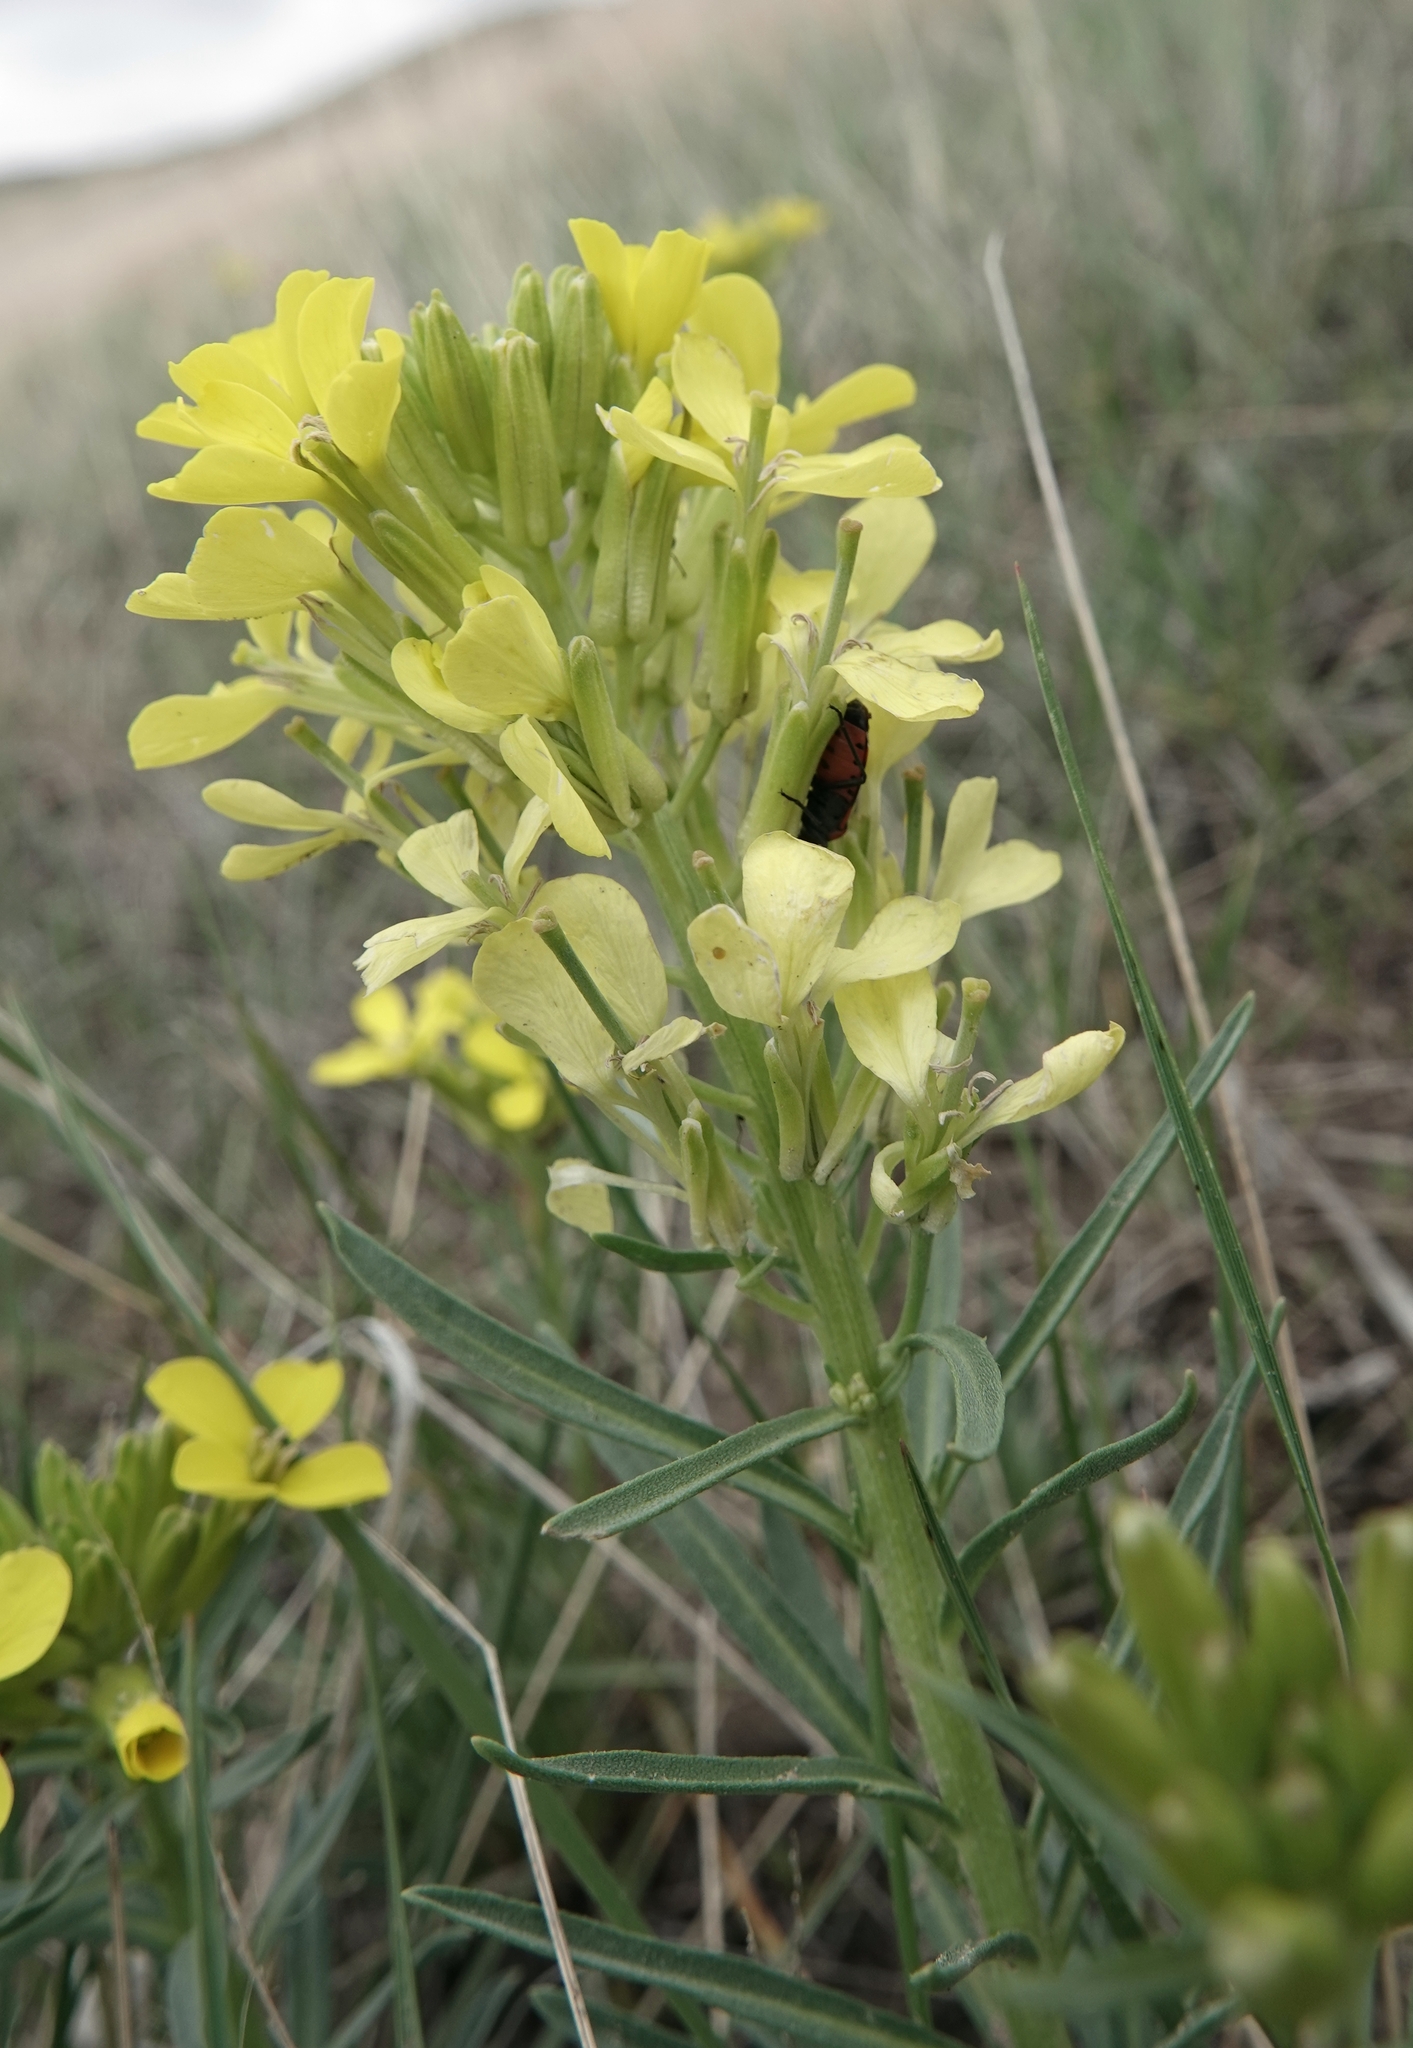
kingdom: Plantae
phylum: Tracheophyta
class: Magnoliopsida
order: Brassicales
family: Brassicaceae
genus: Erysimum
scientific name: Erysimum asperum
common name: Western wallflower
